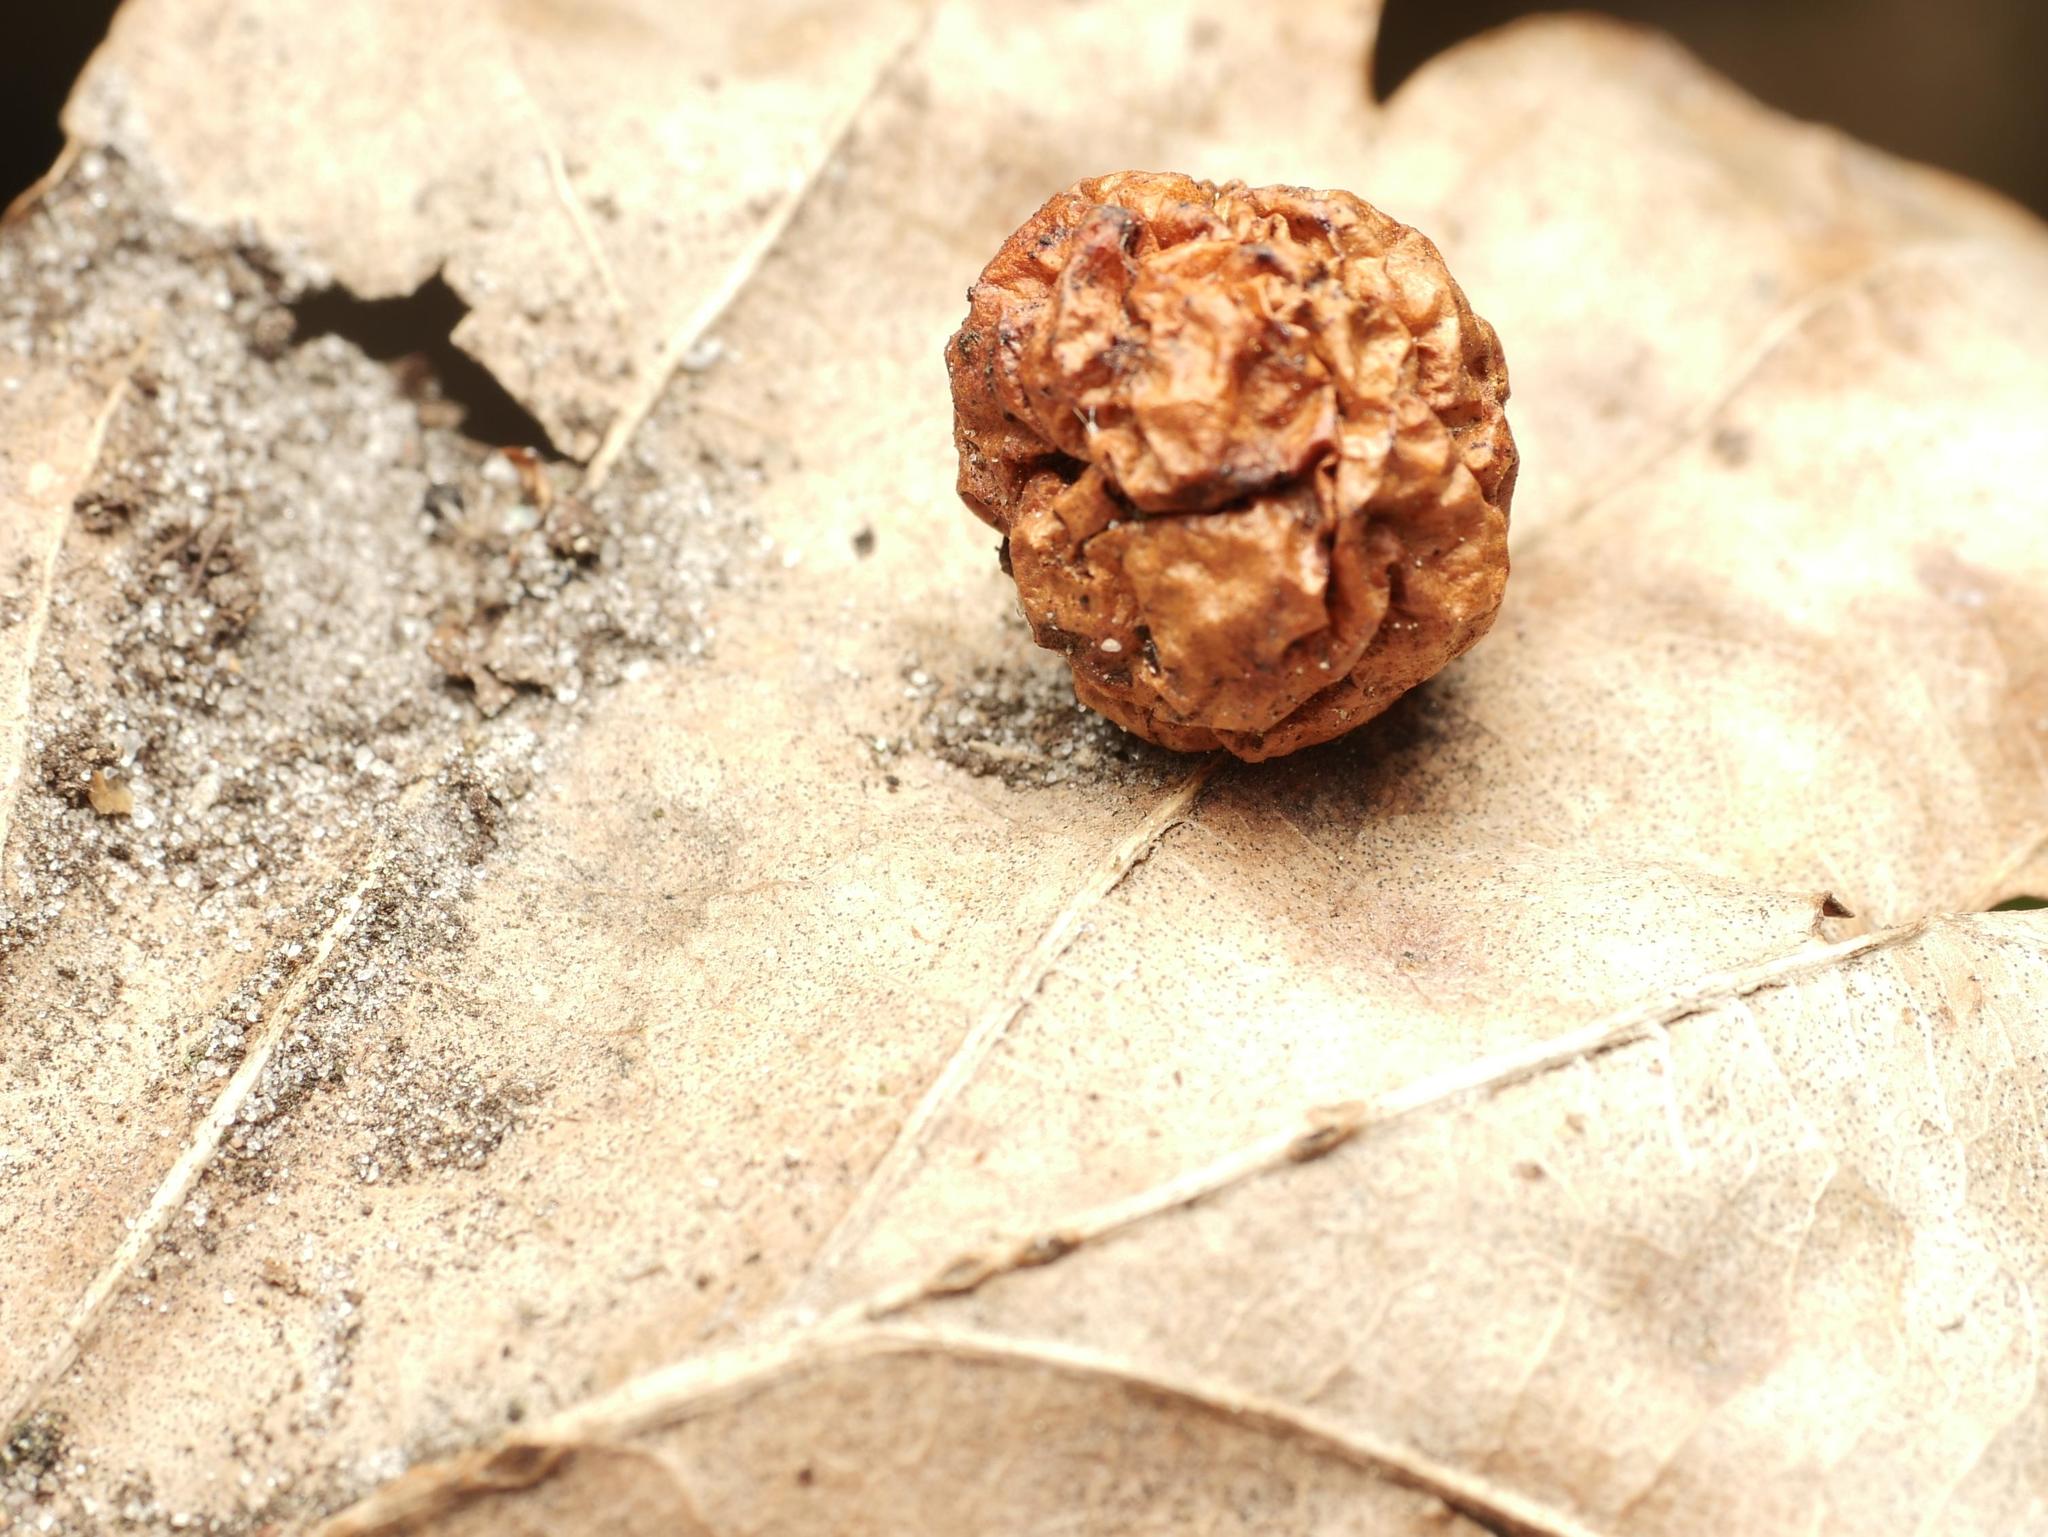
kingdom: Animalia
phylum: Arthropoda
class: Insecta
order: Hymenoptera
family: Cynipidae
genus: Cynips
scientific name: Cynips quercusfolii
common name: Cherry gall
